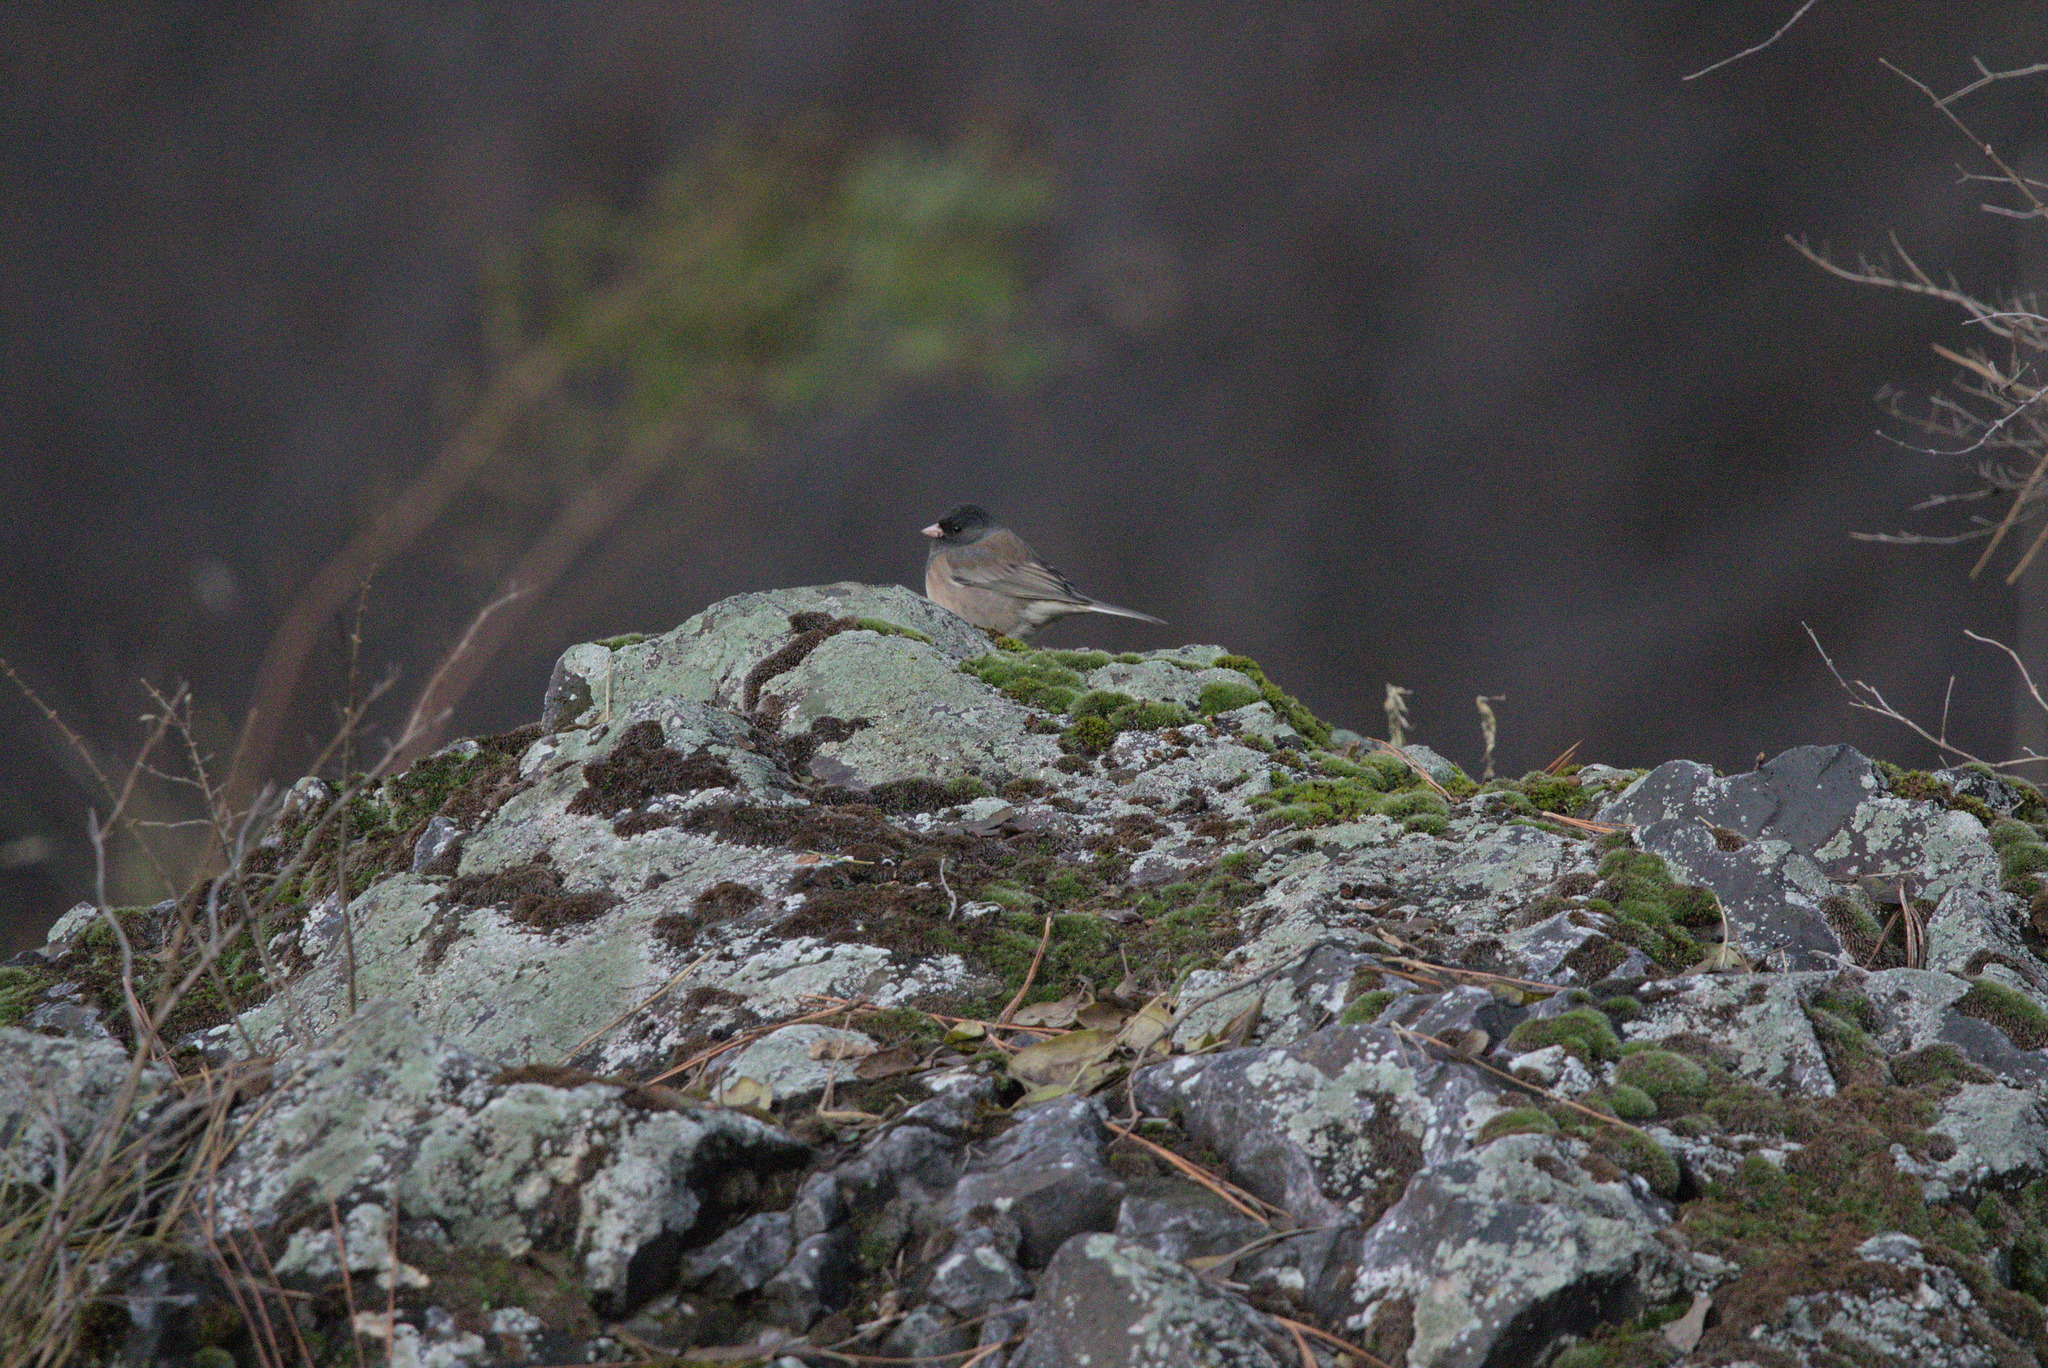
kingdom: Animalia
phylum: Chordata
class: Aves
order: Passeriformes
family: Passerellidae
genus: Junco
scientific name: Junco hyemalis
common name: Dark-eyed junco
